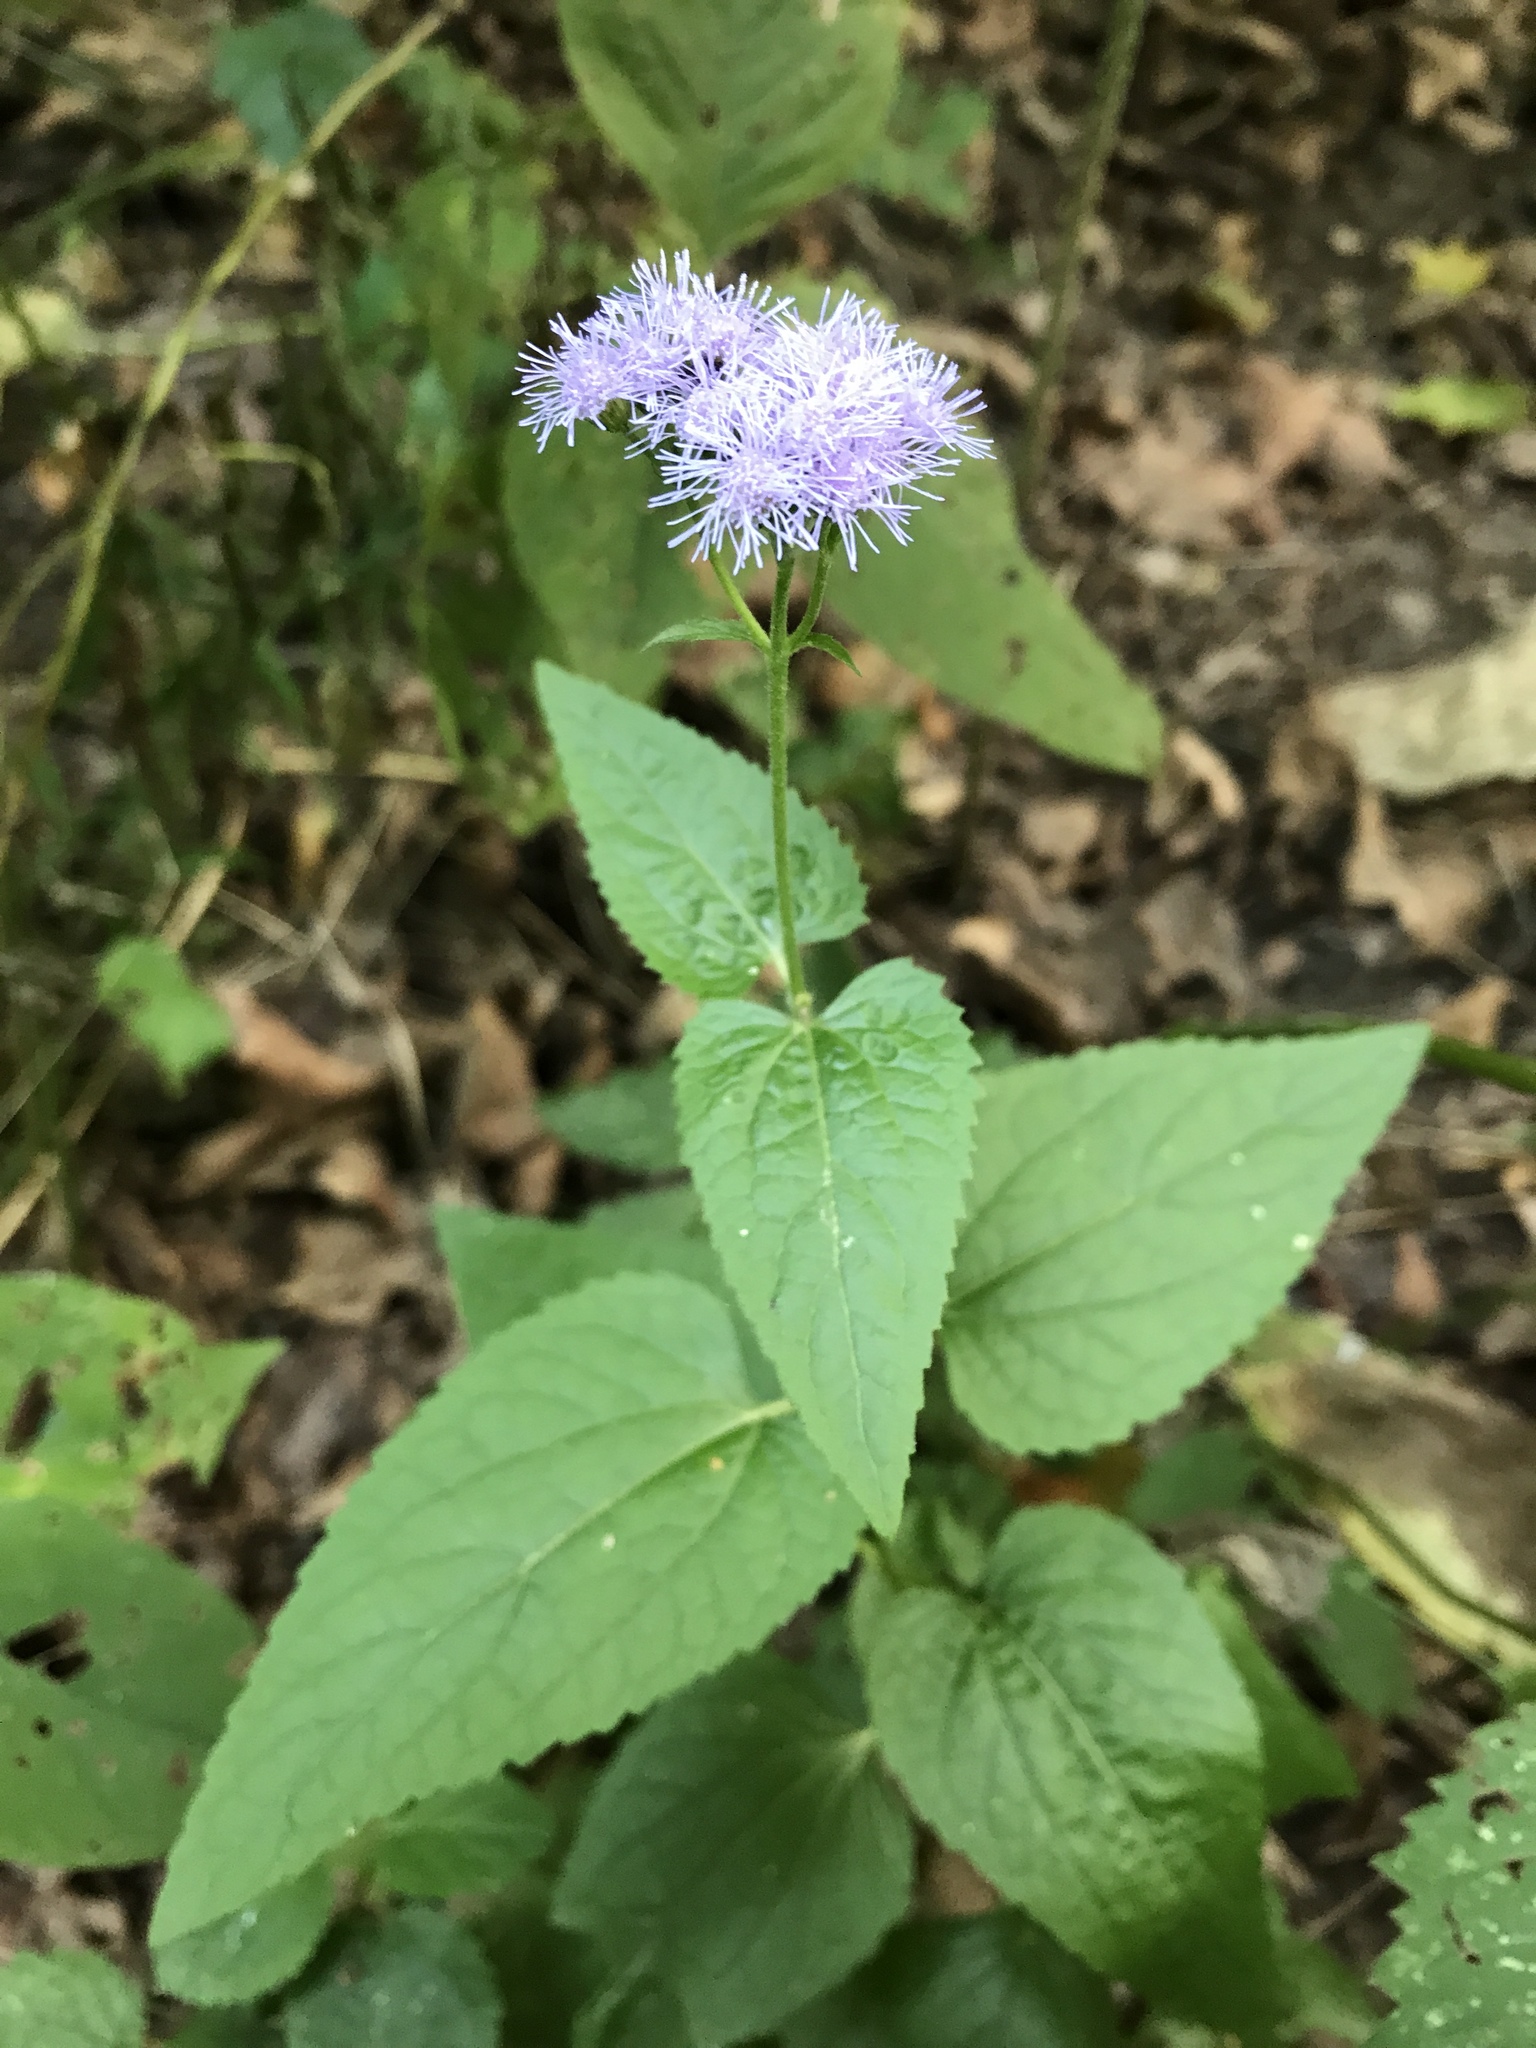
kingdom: Plantae
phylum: Tracheophyta
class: Magnoliopsida
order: Asterales
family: Asteraceae
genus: Conoclinium
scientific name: Conoclinium coelestinum
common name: Blue mistflower
